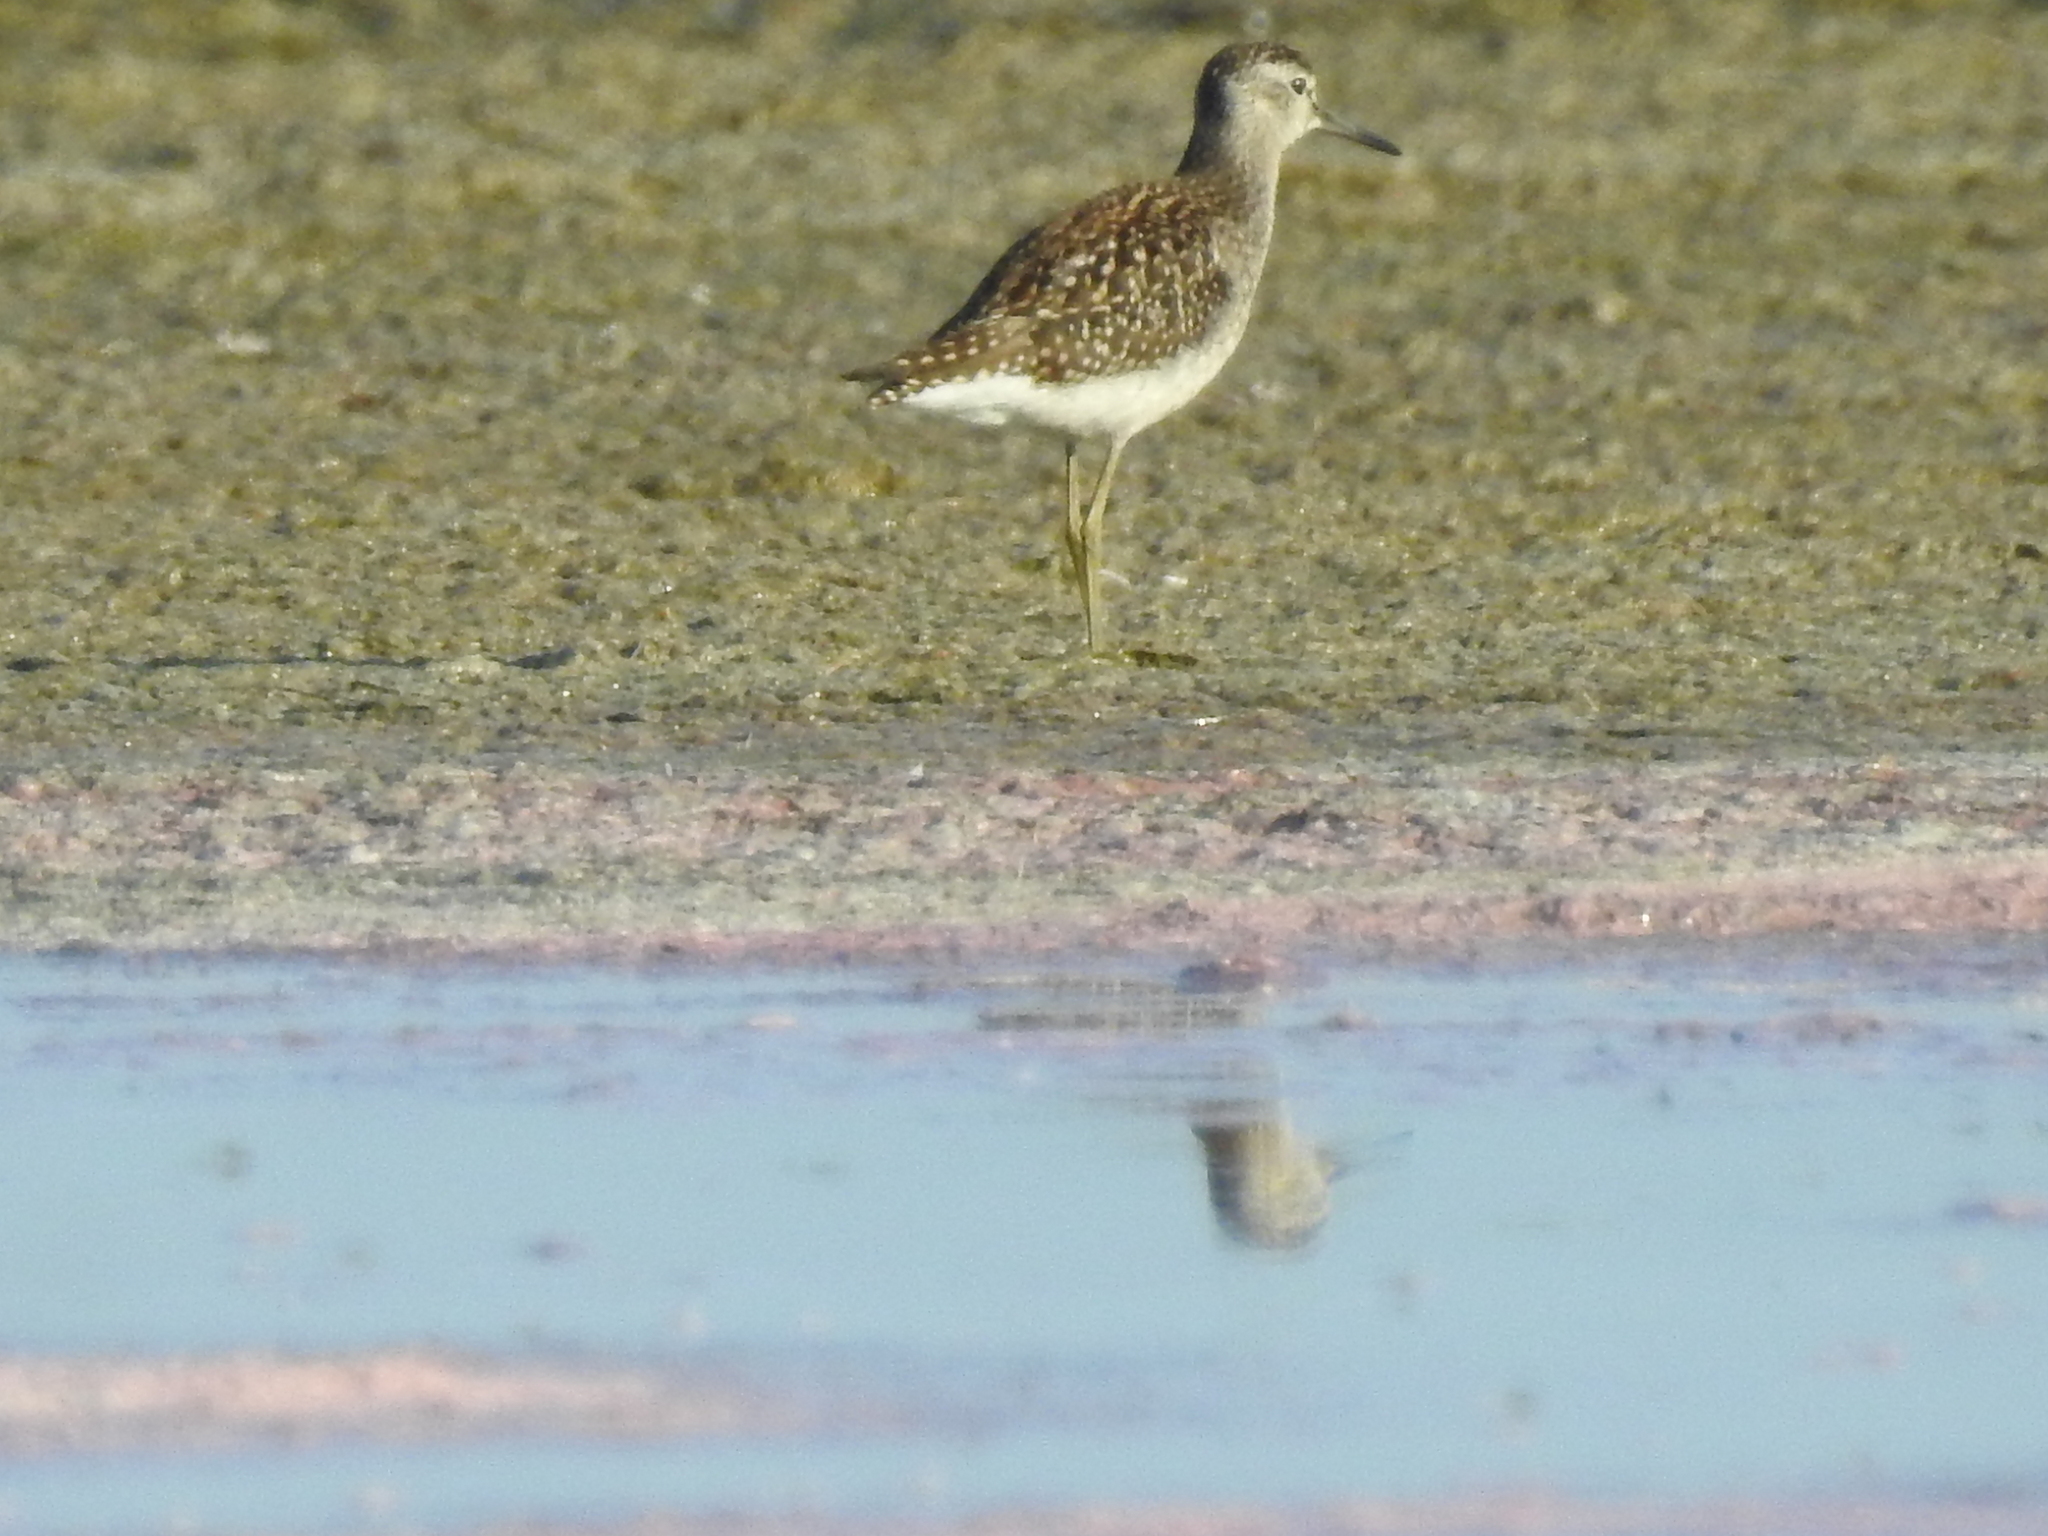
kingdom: Animalia
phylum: Chordata
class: Aves
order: Charadriiformes
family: Scolopacidae
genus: Tringa
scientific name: Tringa glareola
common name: Wood sandpiper
